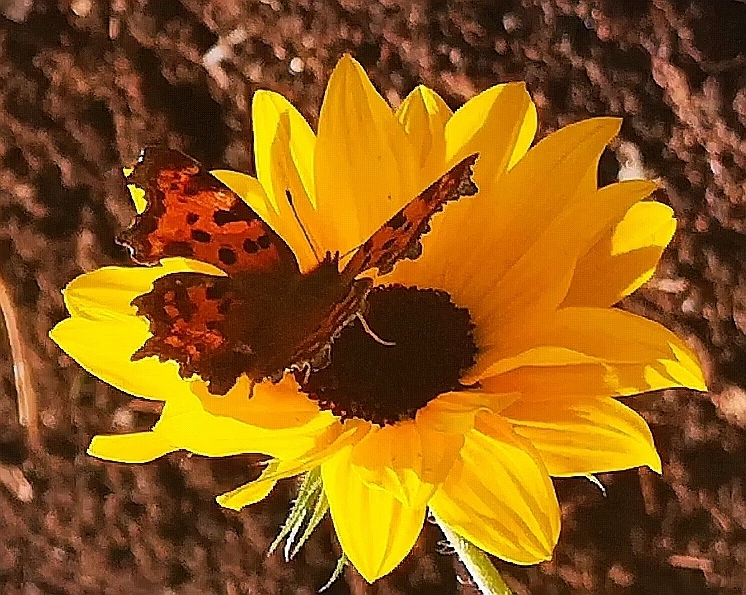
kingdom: Animalia
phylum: Arthropoda
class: Insecta
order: Lepidoptera
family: Nymphalidae
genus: Polygonia
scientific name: Polygonia c-album
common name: Comma
